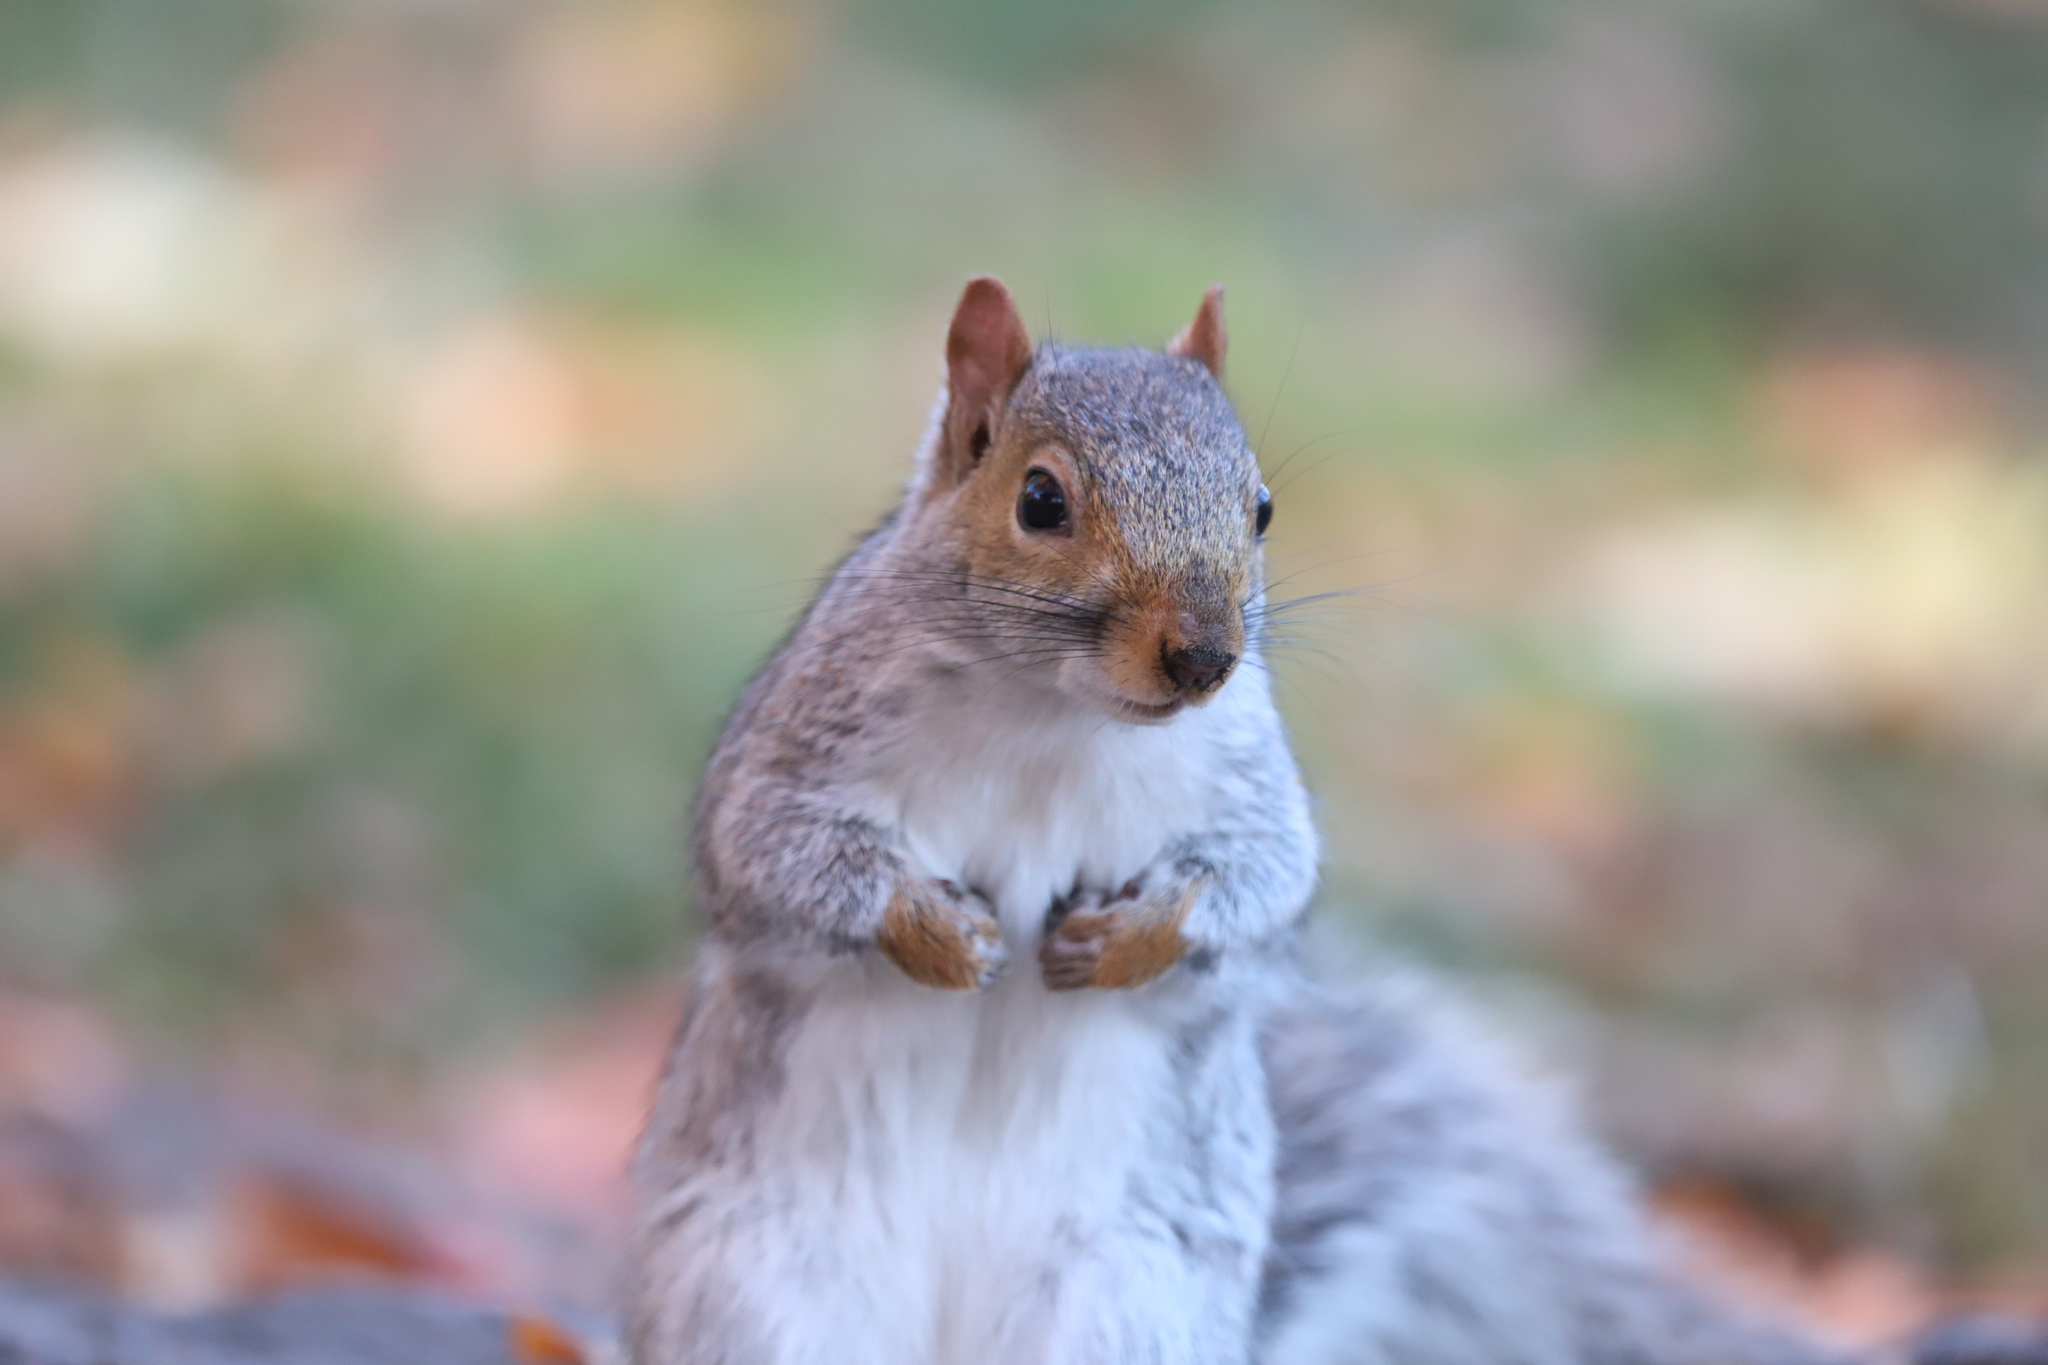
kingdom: Animalia
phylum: Chordata
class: Mammalia
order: Rodentia
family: Sciuridae
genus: Sciurus
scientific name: Sciurus carolinensis
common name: Eastern gray squirrel
